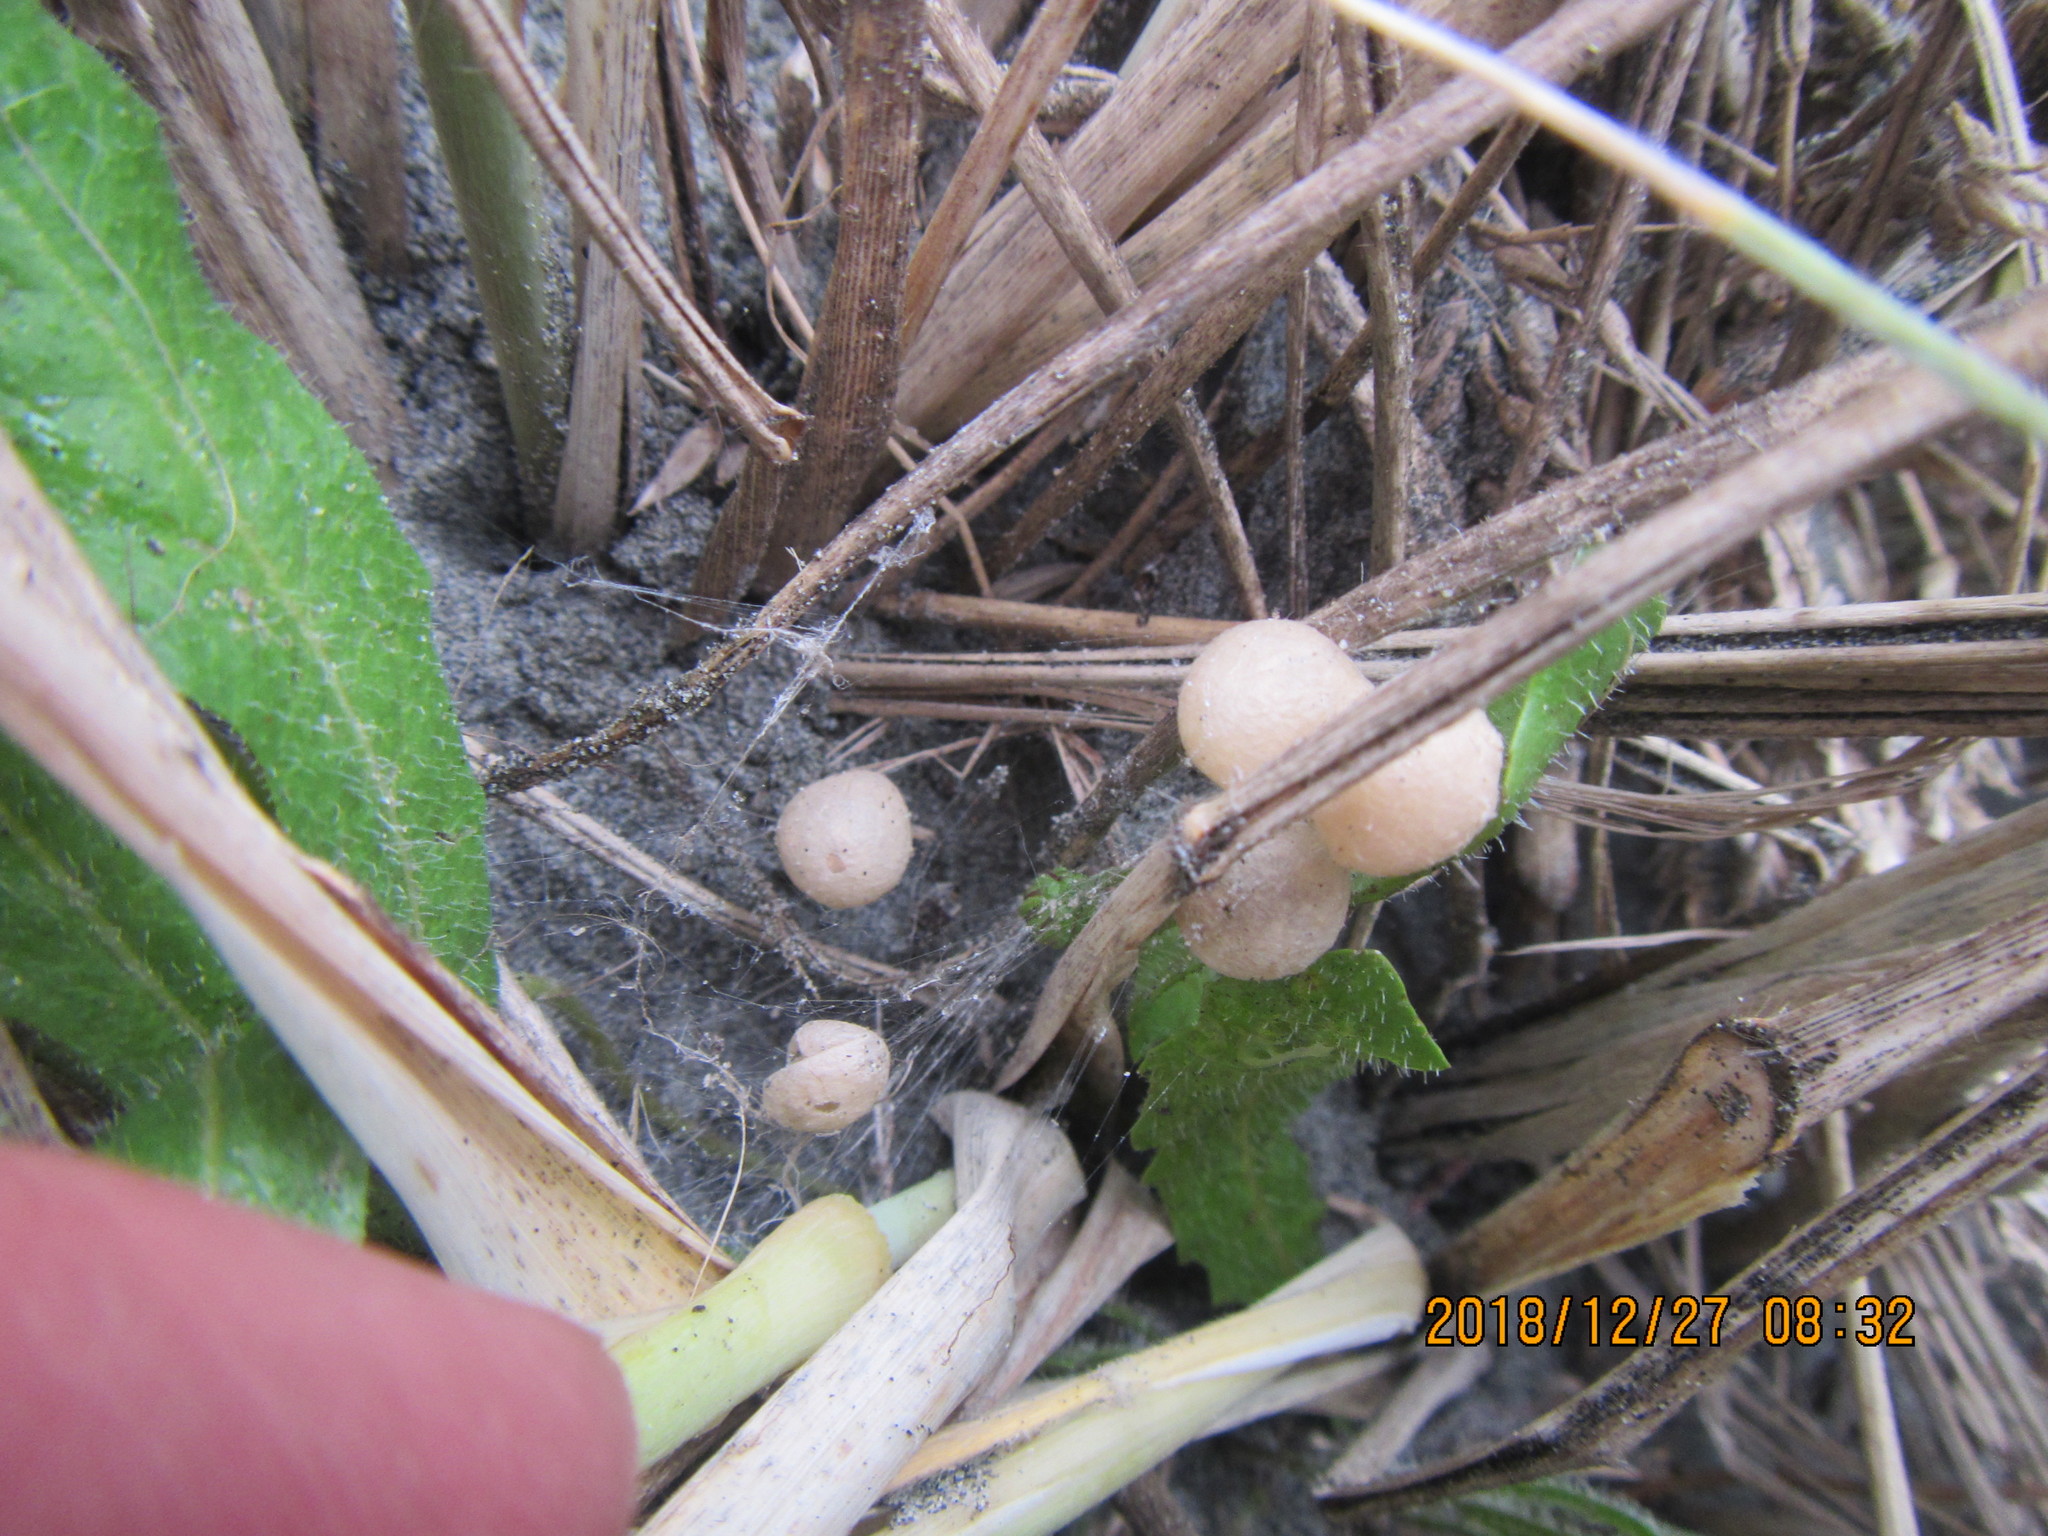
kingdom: Animalia
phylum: Arthropoda
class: Arachnida
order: Araneae
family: Theridiidae
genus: Latrodectus
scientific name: Latrodectus katipo
